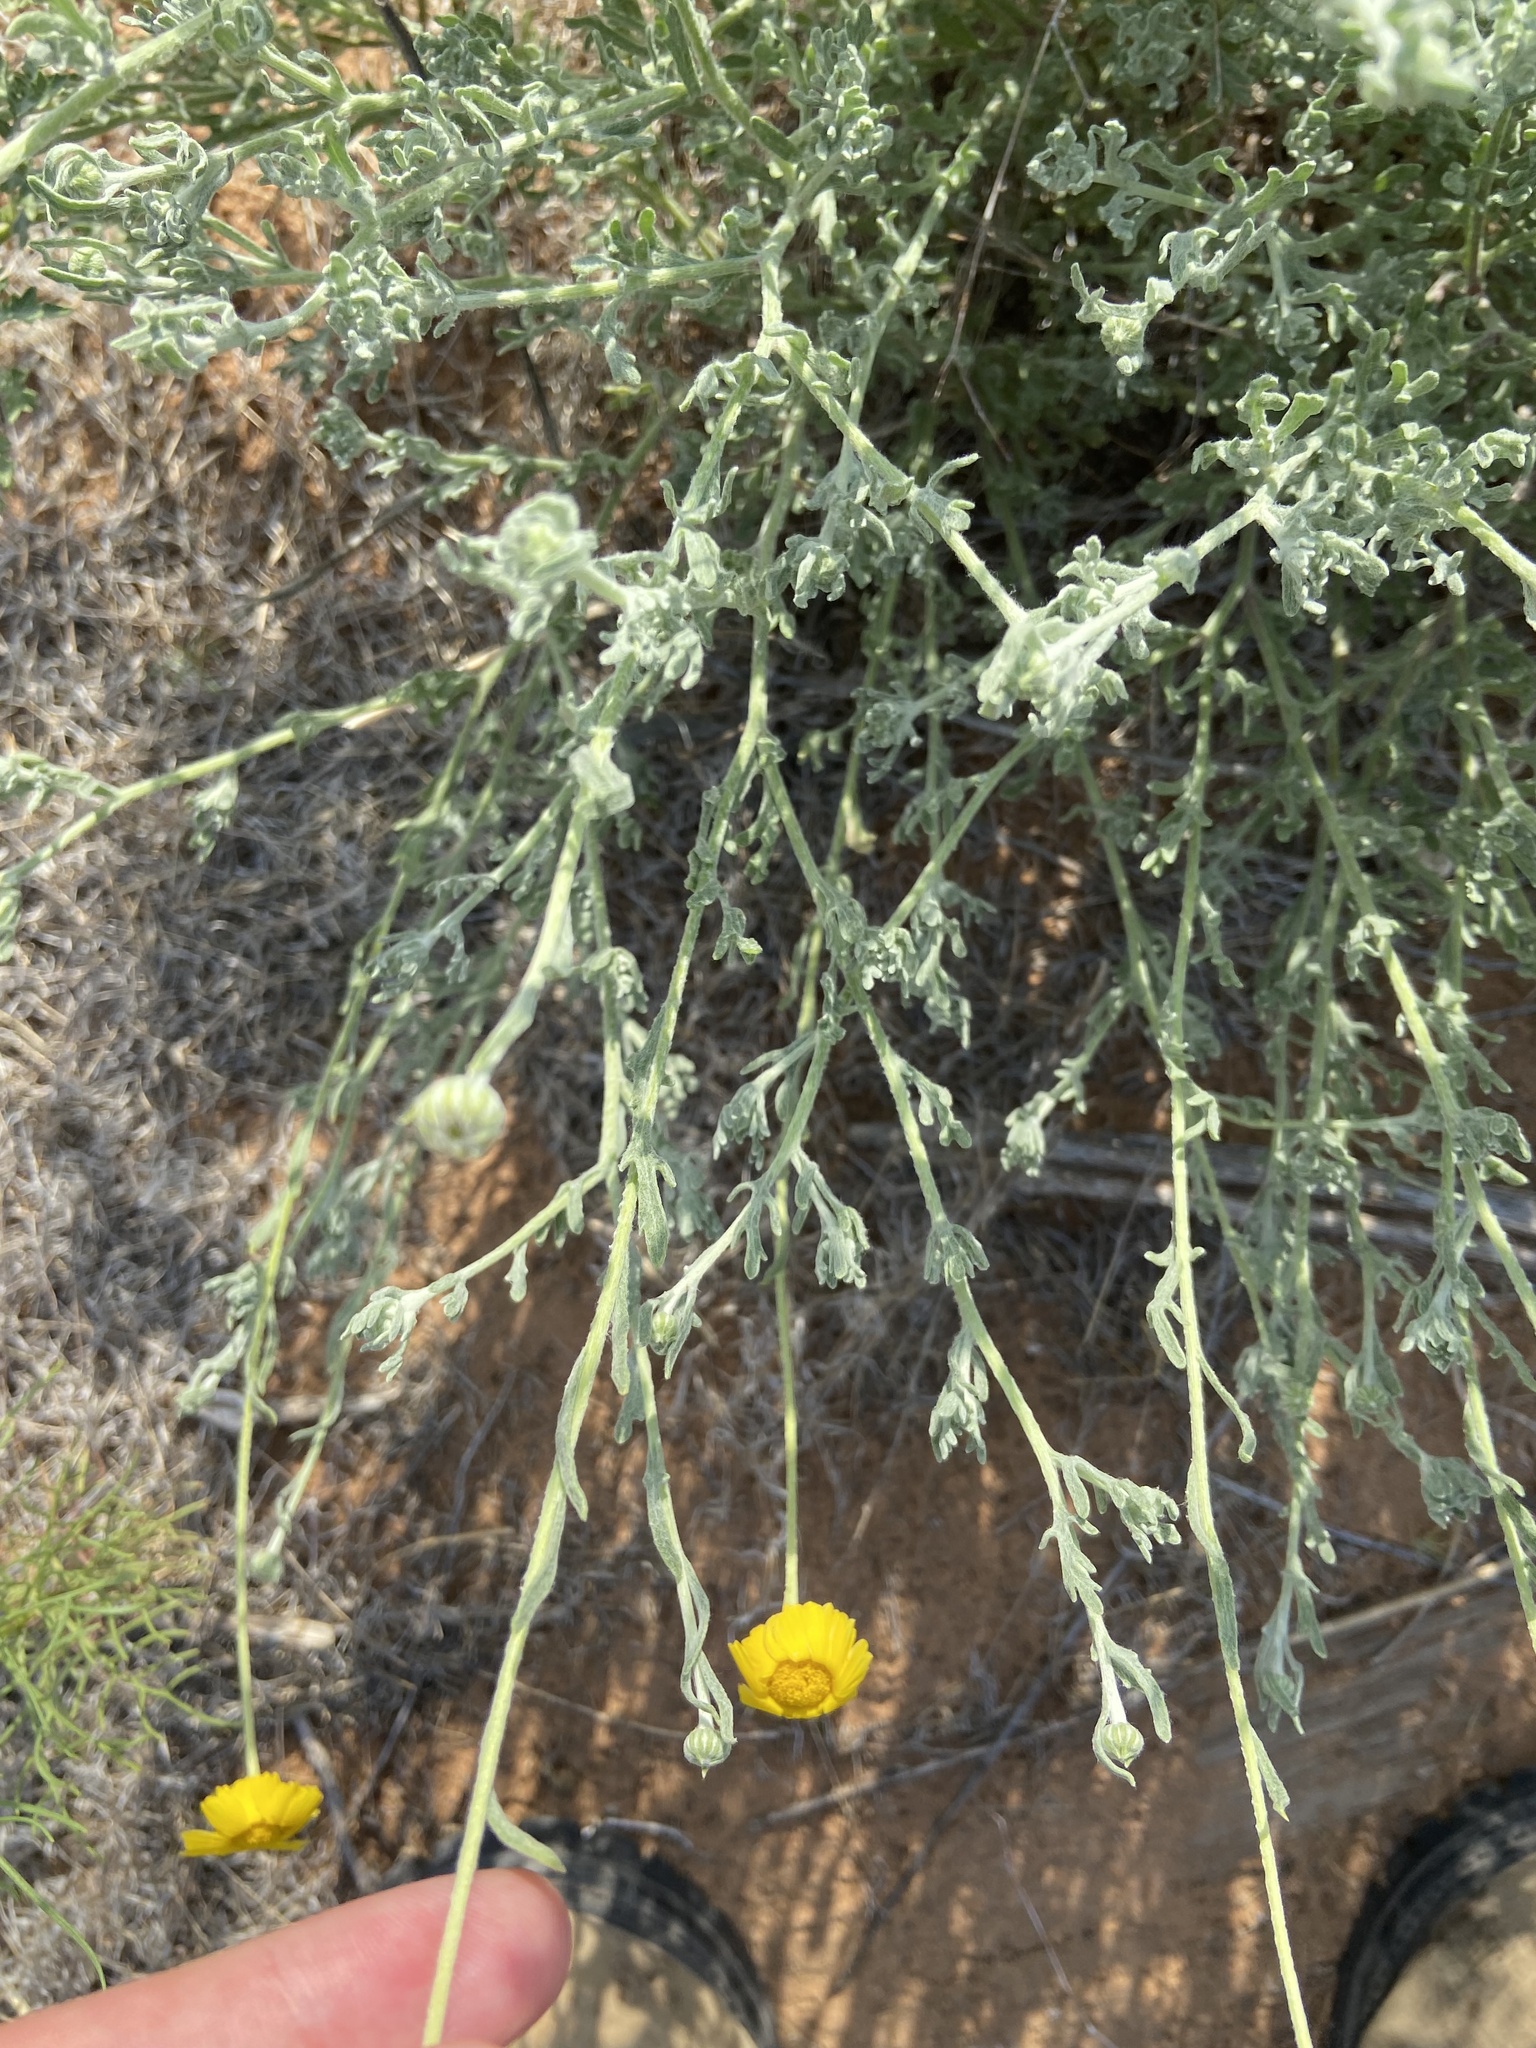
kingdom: Plantae
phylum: Tracheophyta
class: Magnoliopsida
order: Asterales
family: Asteraceae
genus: Baileya
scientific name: Baileya multiradiata
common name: Desert-marigold
